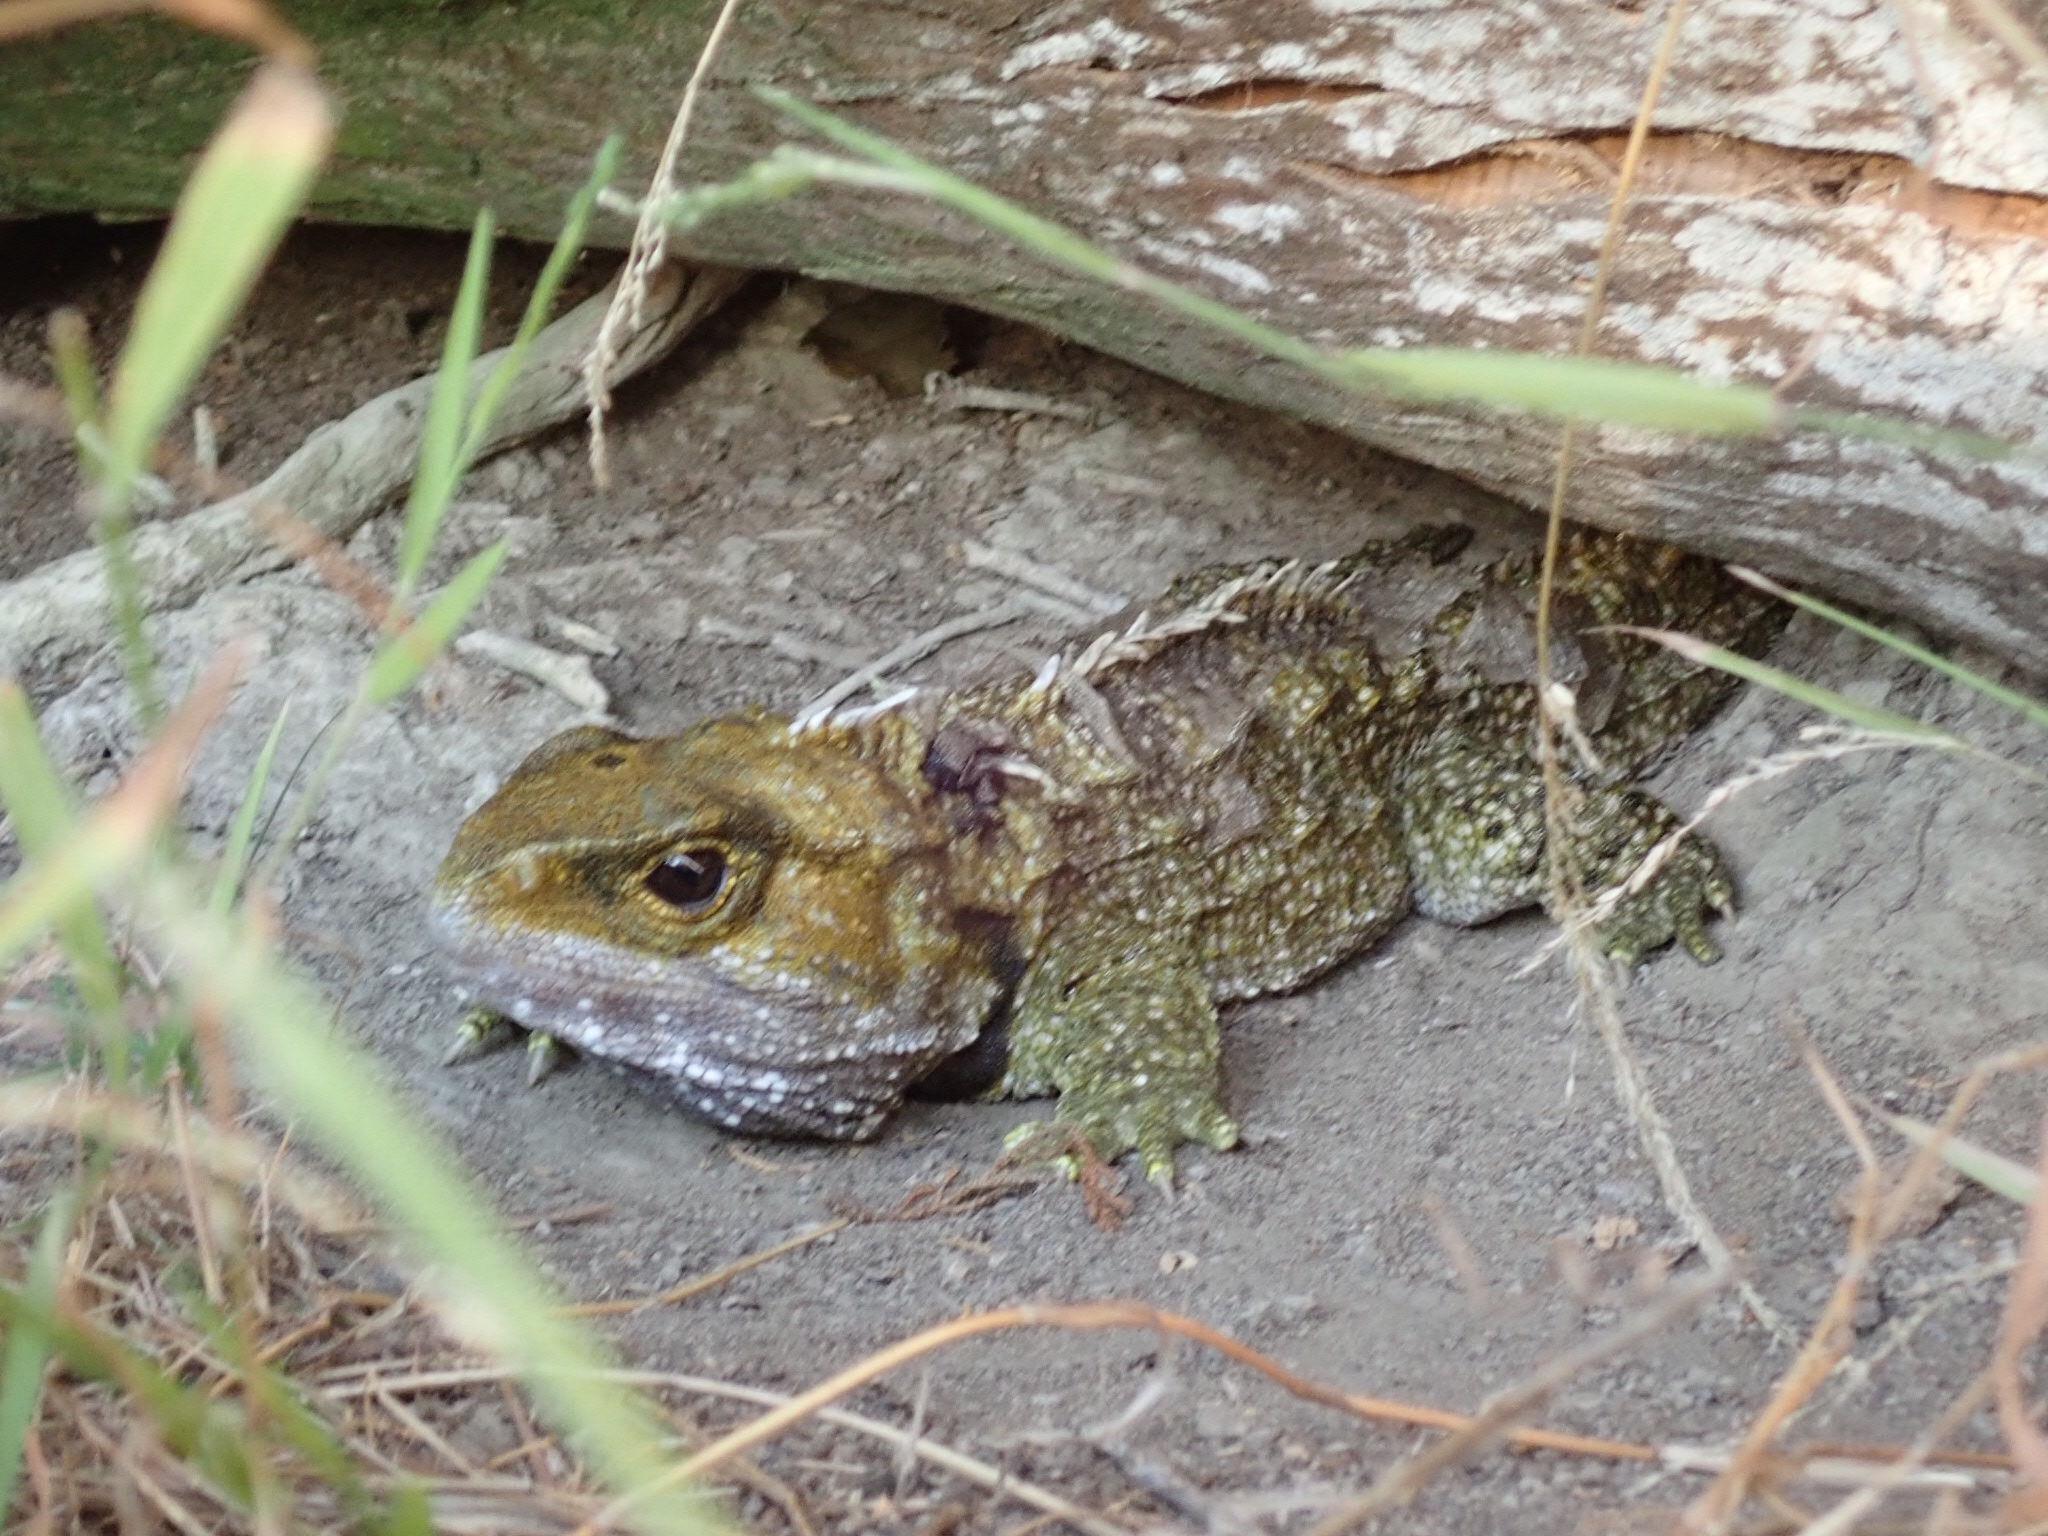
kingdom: Animalia
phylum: Chordata
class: Sphenodontia
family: Sphenodontidae
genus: Sphenodon
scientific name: Sphenodon punctatus
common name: Tuatara
